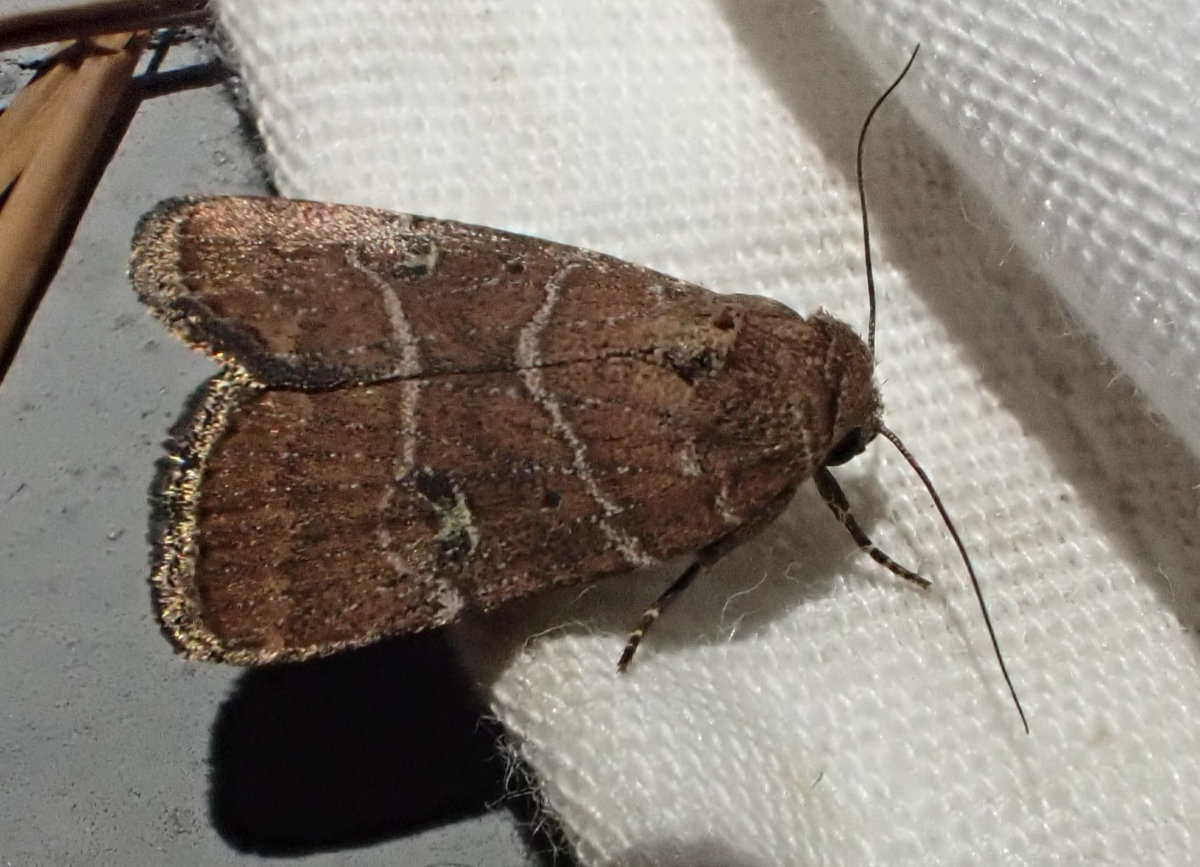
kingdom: Animalia
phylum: Arthropoda
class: Insecta
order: Lepidoptera
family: Noctuidae
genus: Elaphria
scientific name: Elaphria grata
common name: Grateful midget moth
